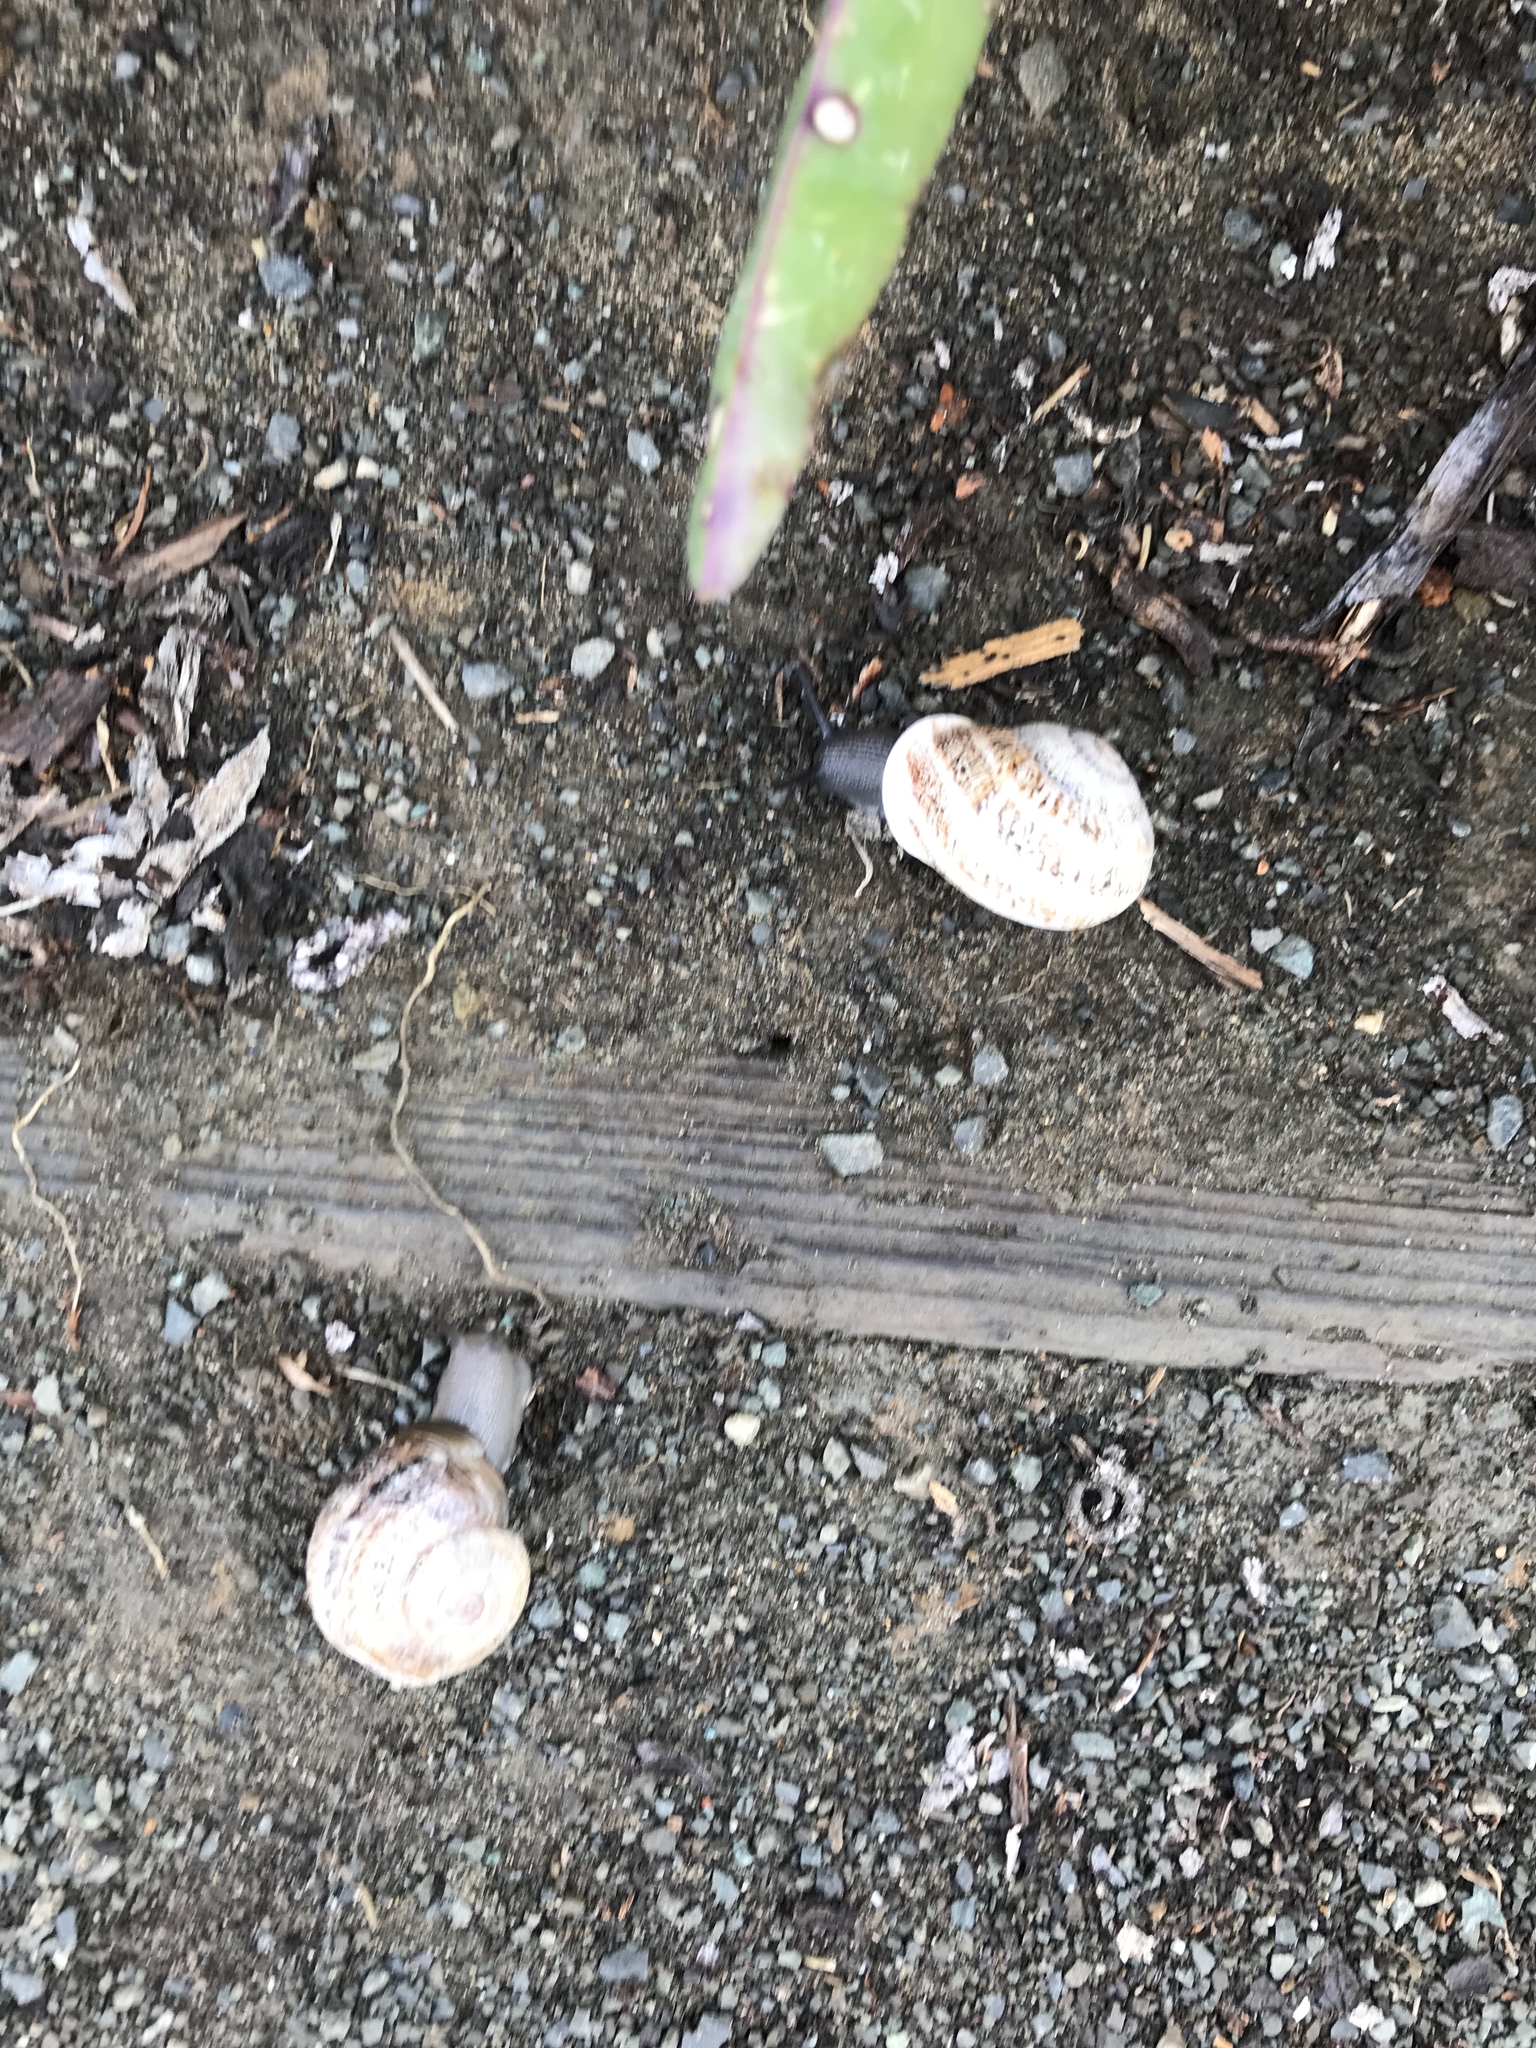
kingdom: Animalia
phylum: Mollusca
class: Gastropoda
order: Stylommatophora
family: Helicidae
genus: Otala
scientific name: Otala lactea
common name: Milk snail
